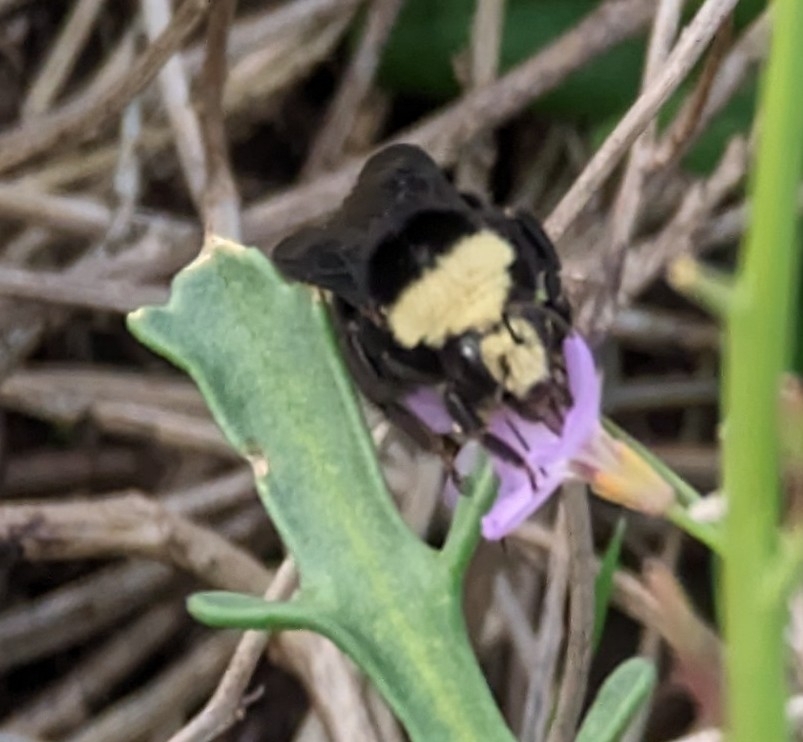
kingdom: Animalia
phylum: Arthropoda
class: Insecta
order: Hymenoptera
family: Apidae
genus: Bombus
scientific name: Bombus vosnesenskii
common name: Vosnesensky bumble bee
